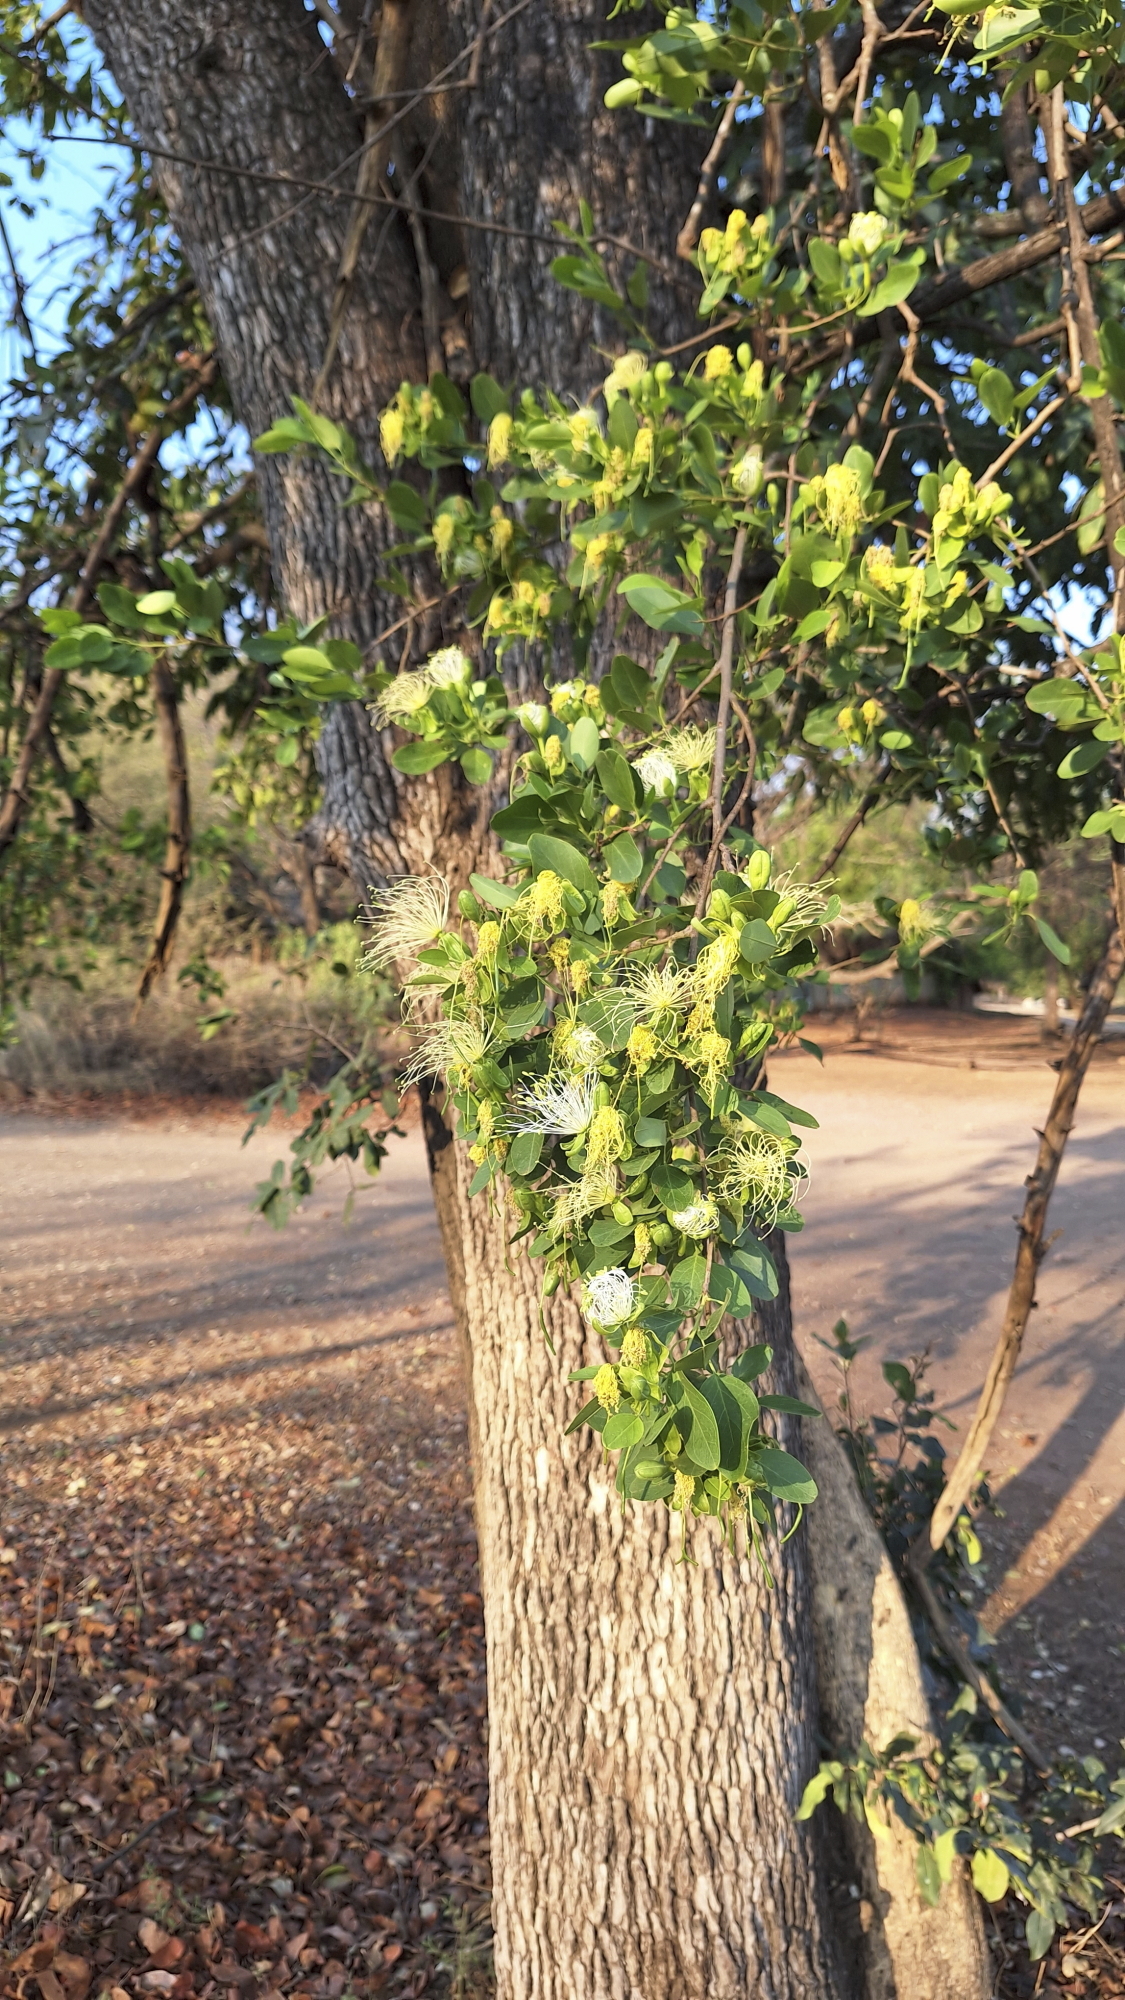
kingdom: Plantae
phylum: Tracheophyta
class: Magnoliopsida
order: Brassicales
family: Capparaceae
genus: Maerua
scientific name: Maerua angolensis
